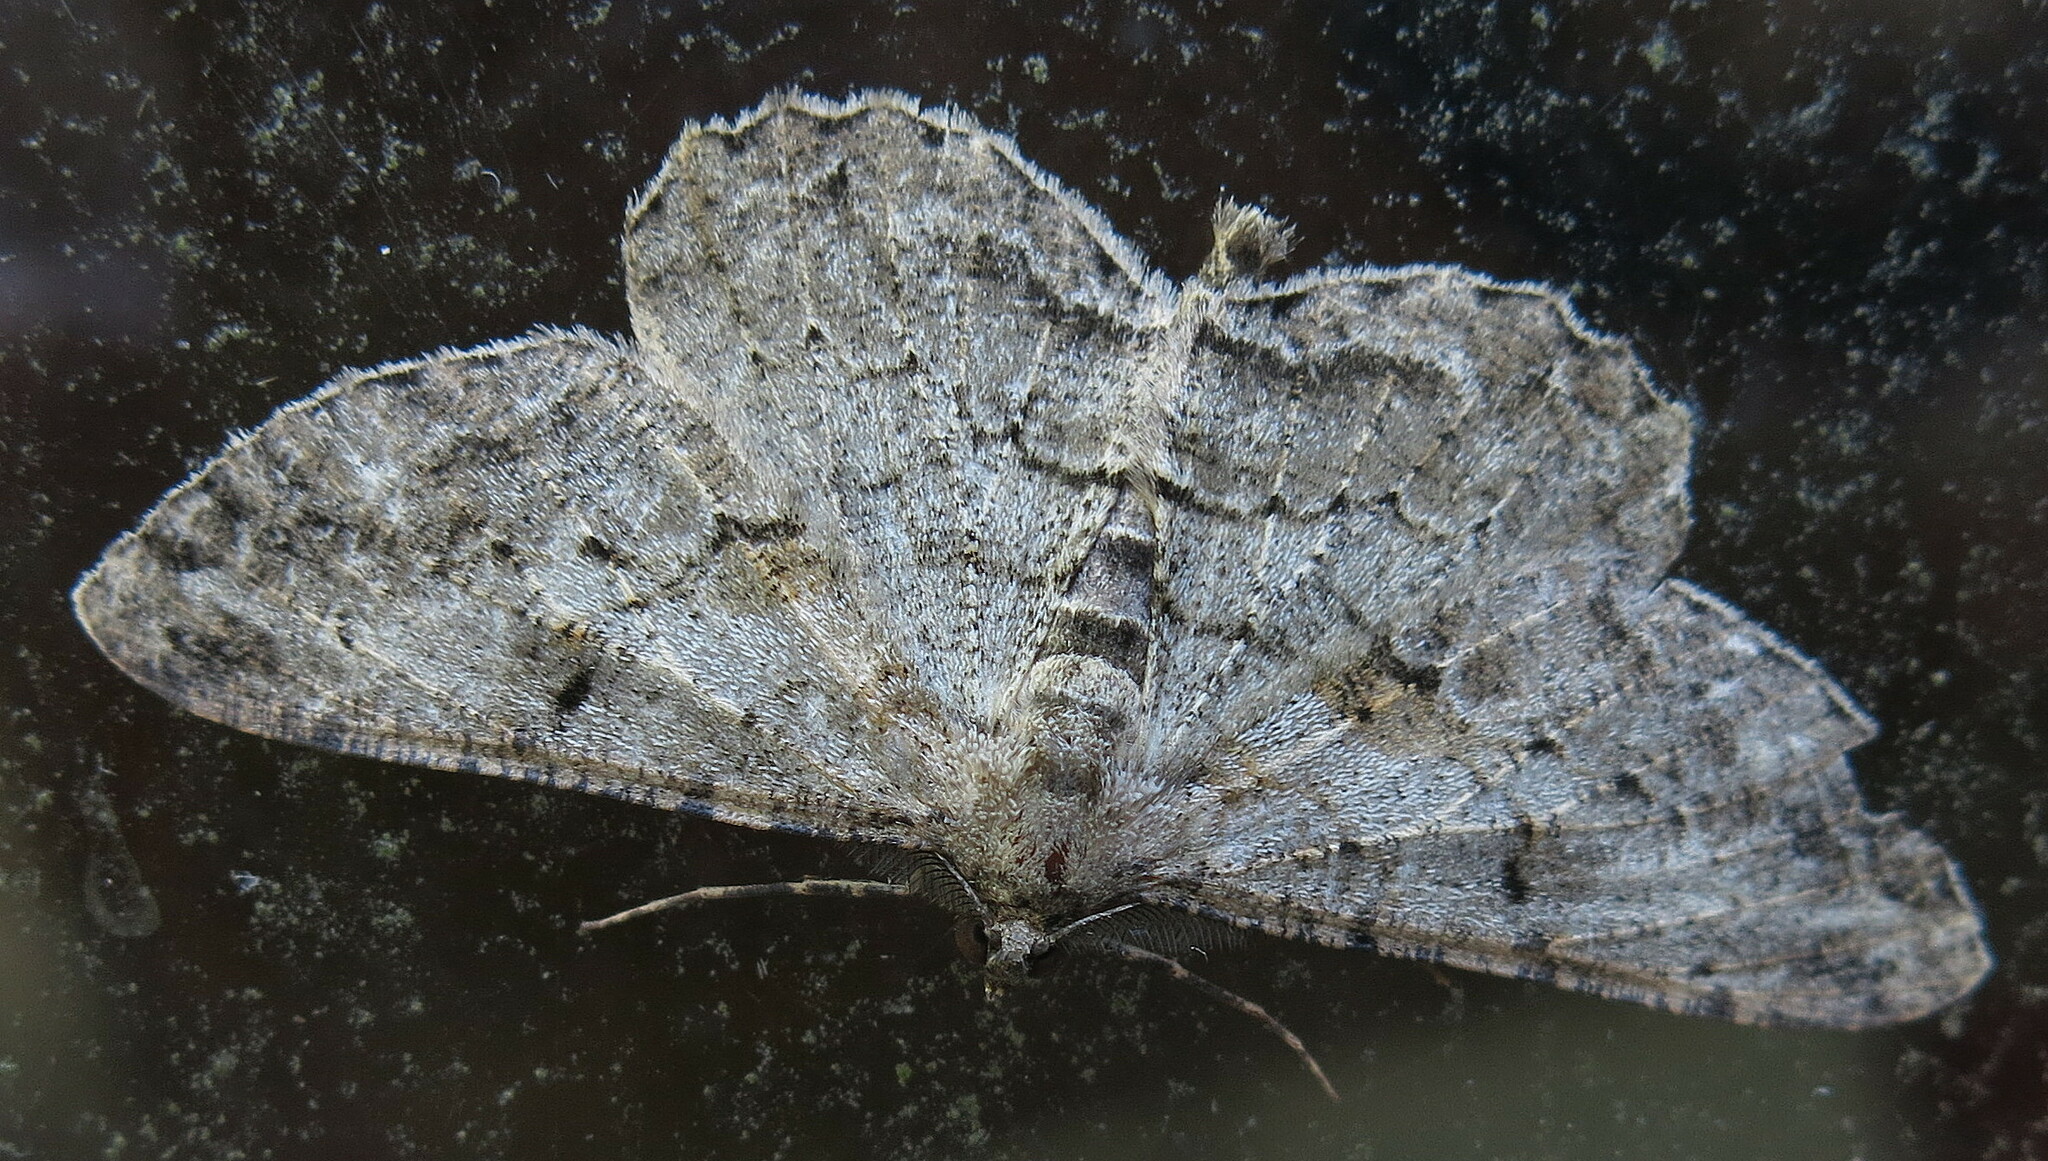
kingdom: Animalia
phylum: Arthropoda
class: Insecta
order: Lepidoptera
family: Geometridae
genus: Peribatodes
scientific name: Peribatodes rhomboidaria
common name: Willow beauty
